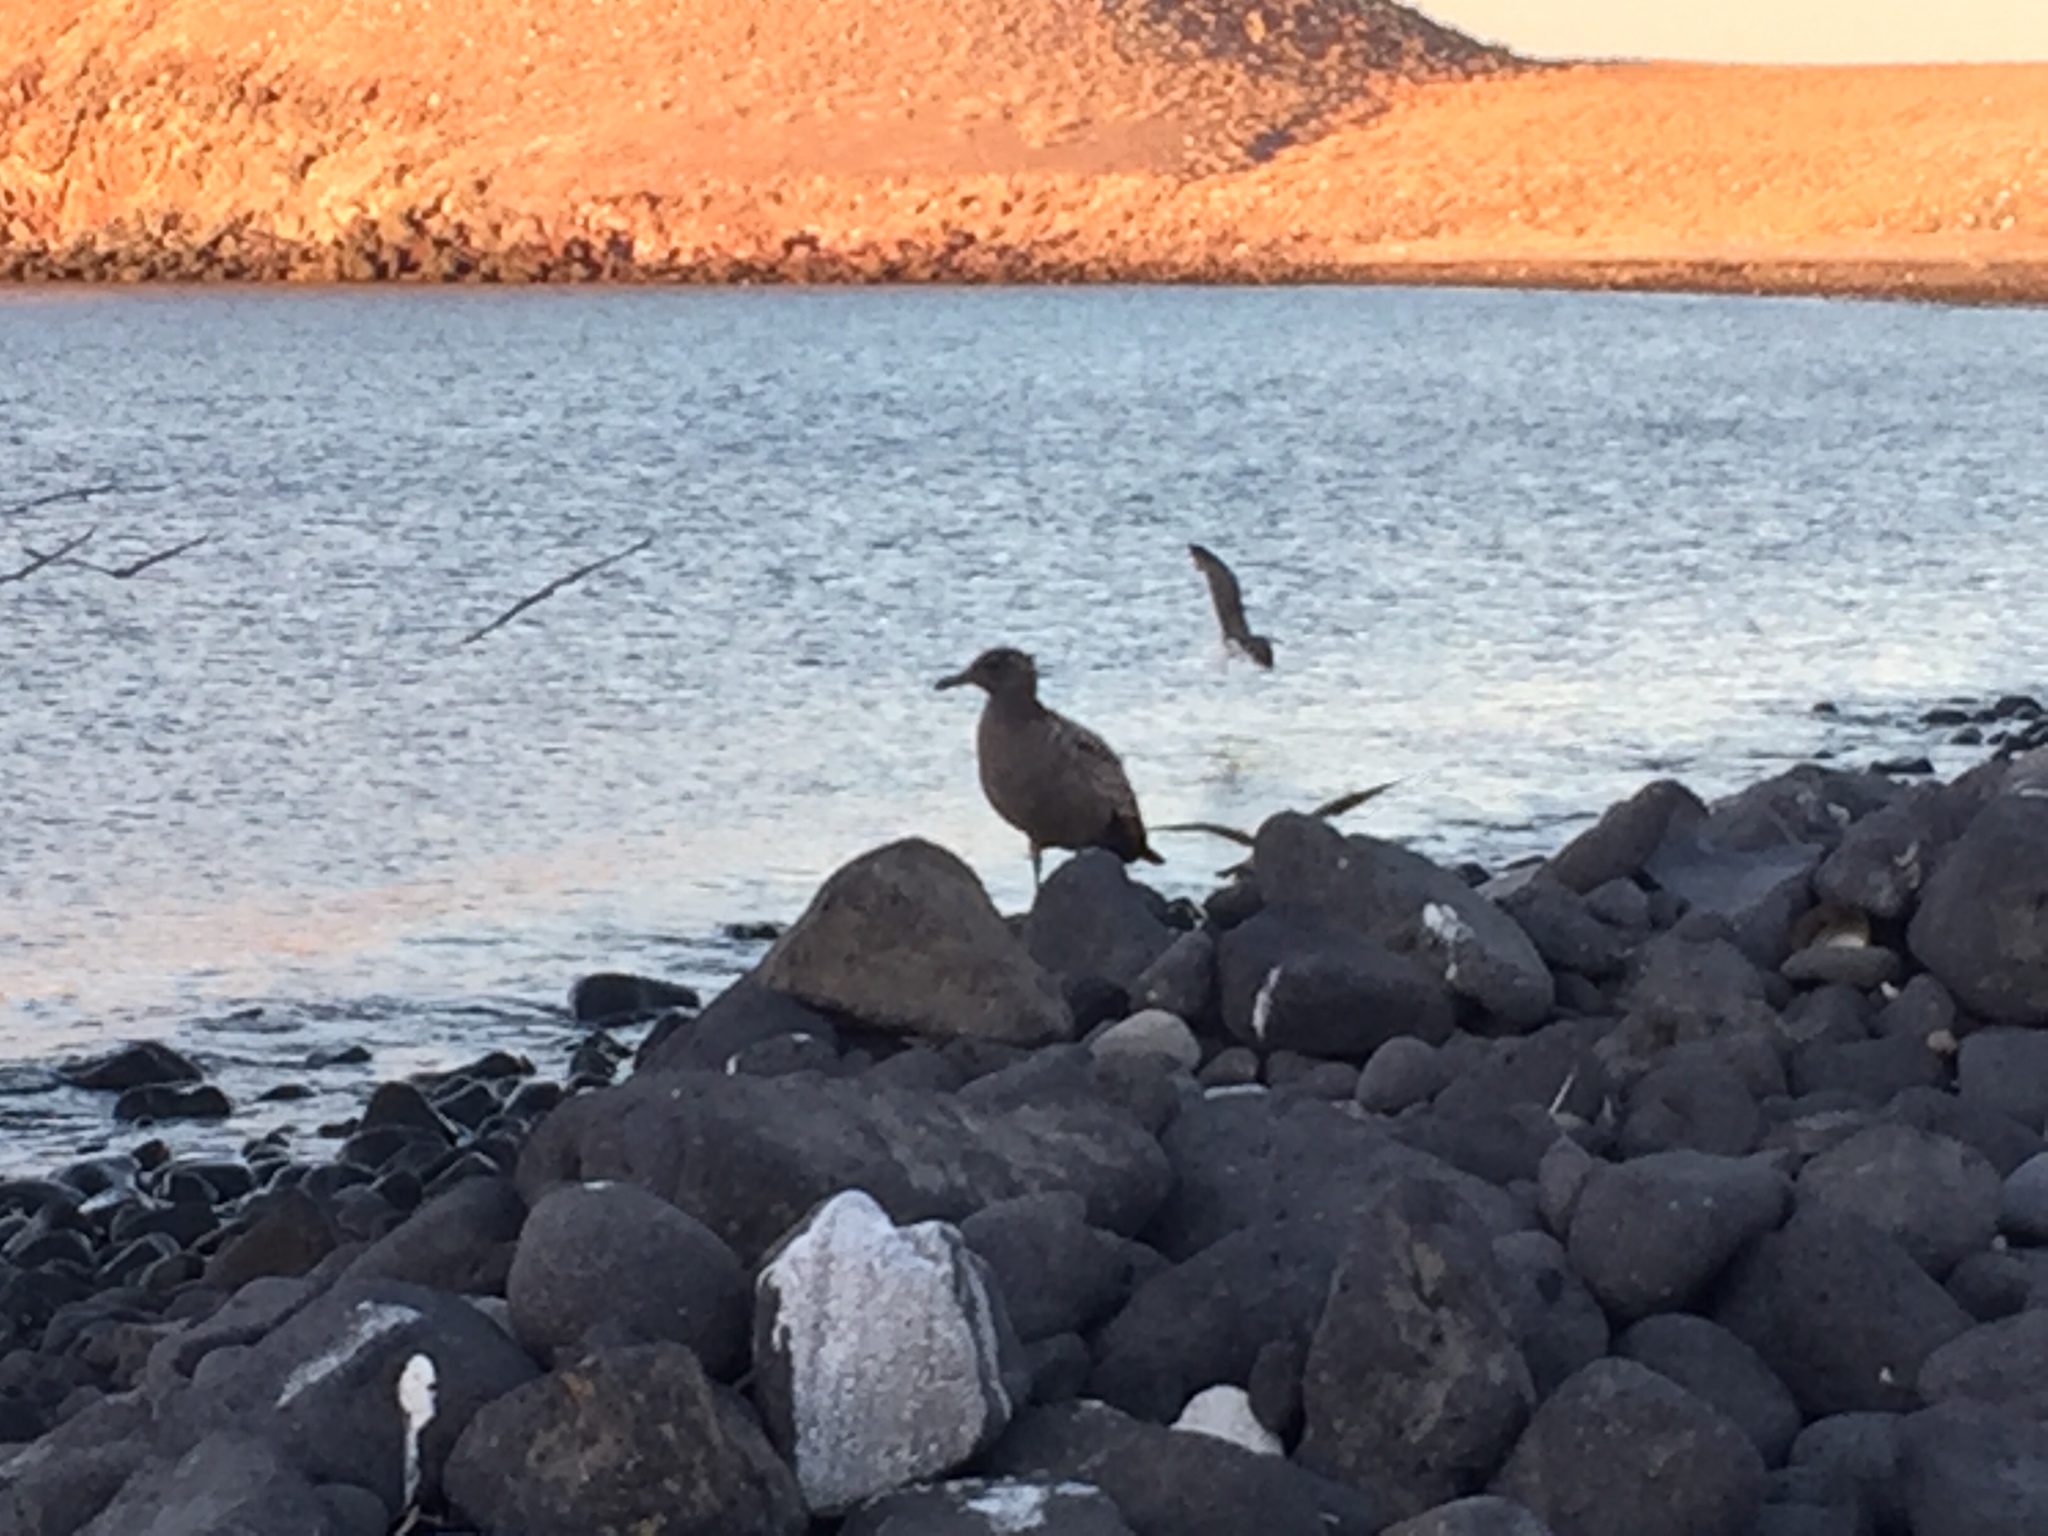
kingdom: Animalia
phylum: Chordata
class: Aves
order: Charadriiformes
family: Laridae
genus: Larus
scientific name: Larus heermanni
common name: Heermann's gull
